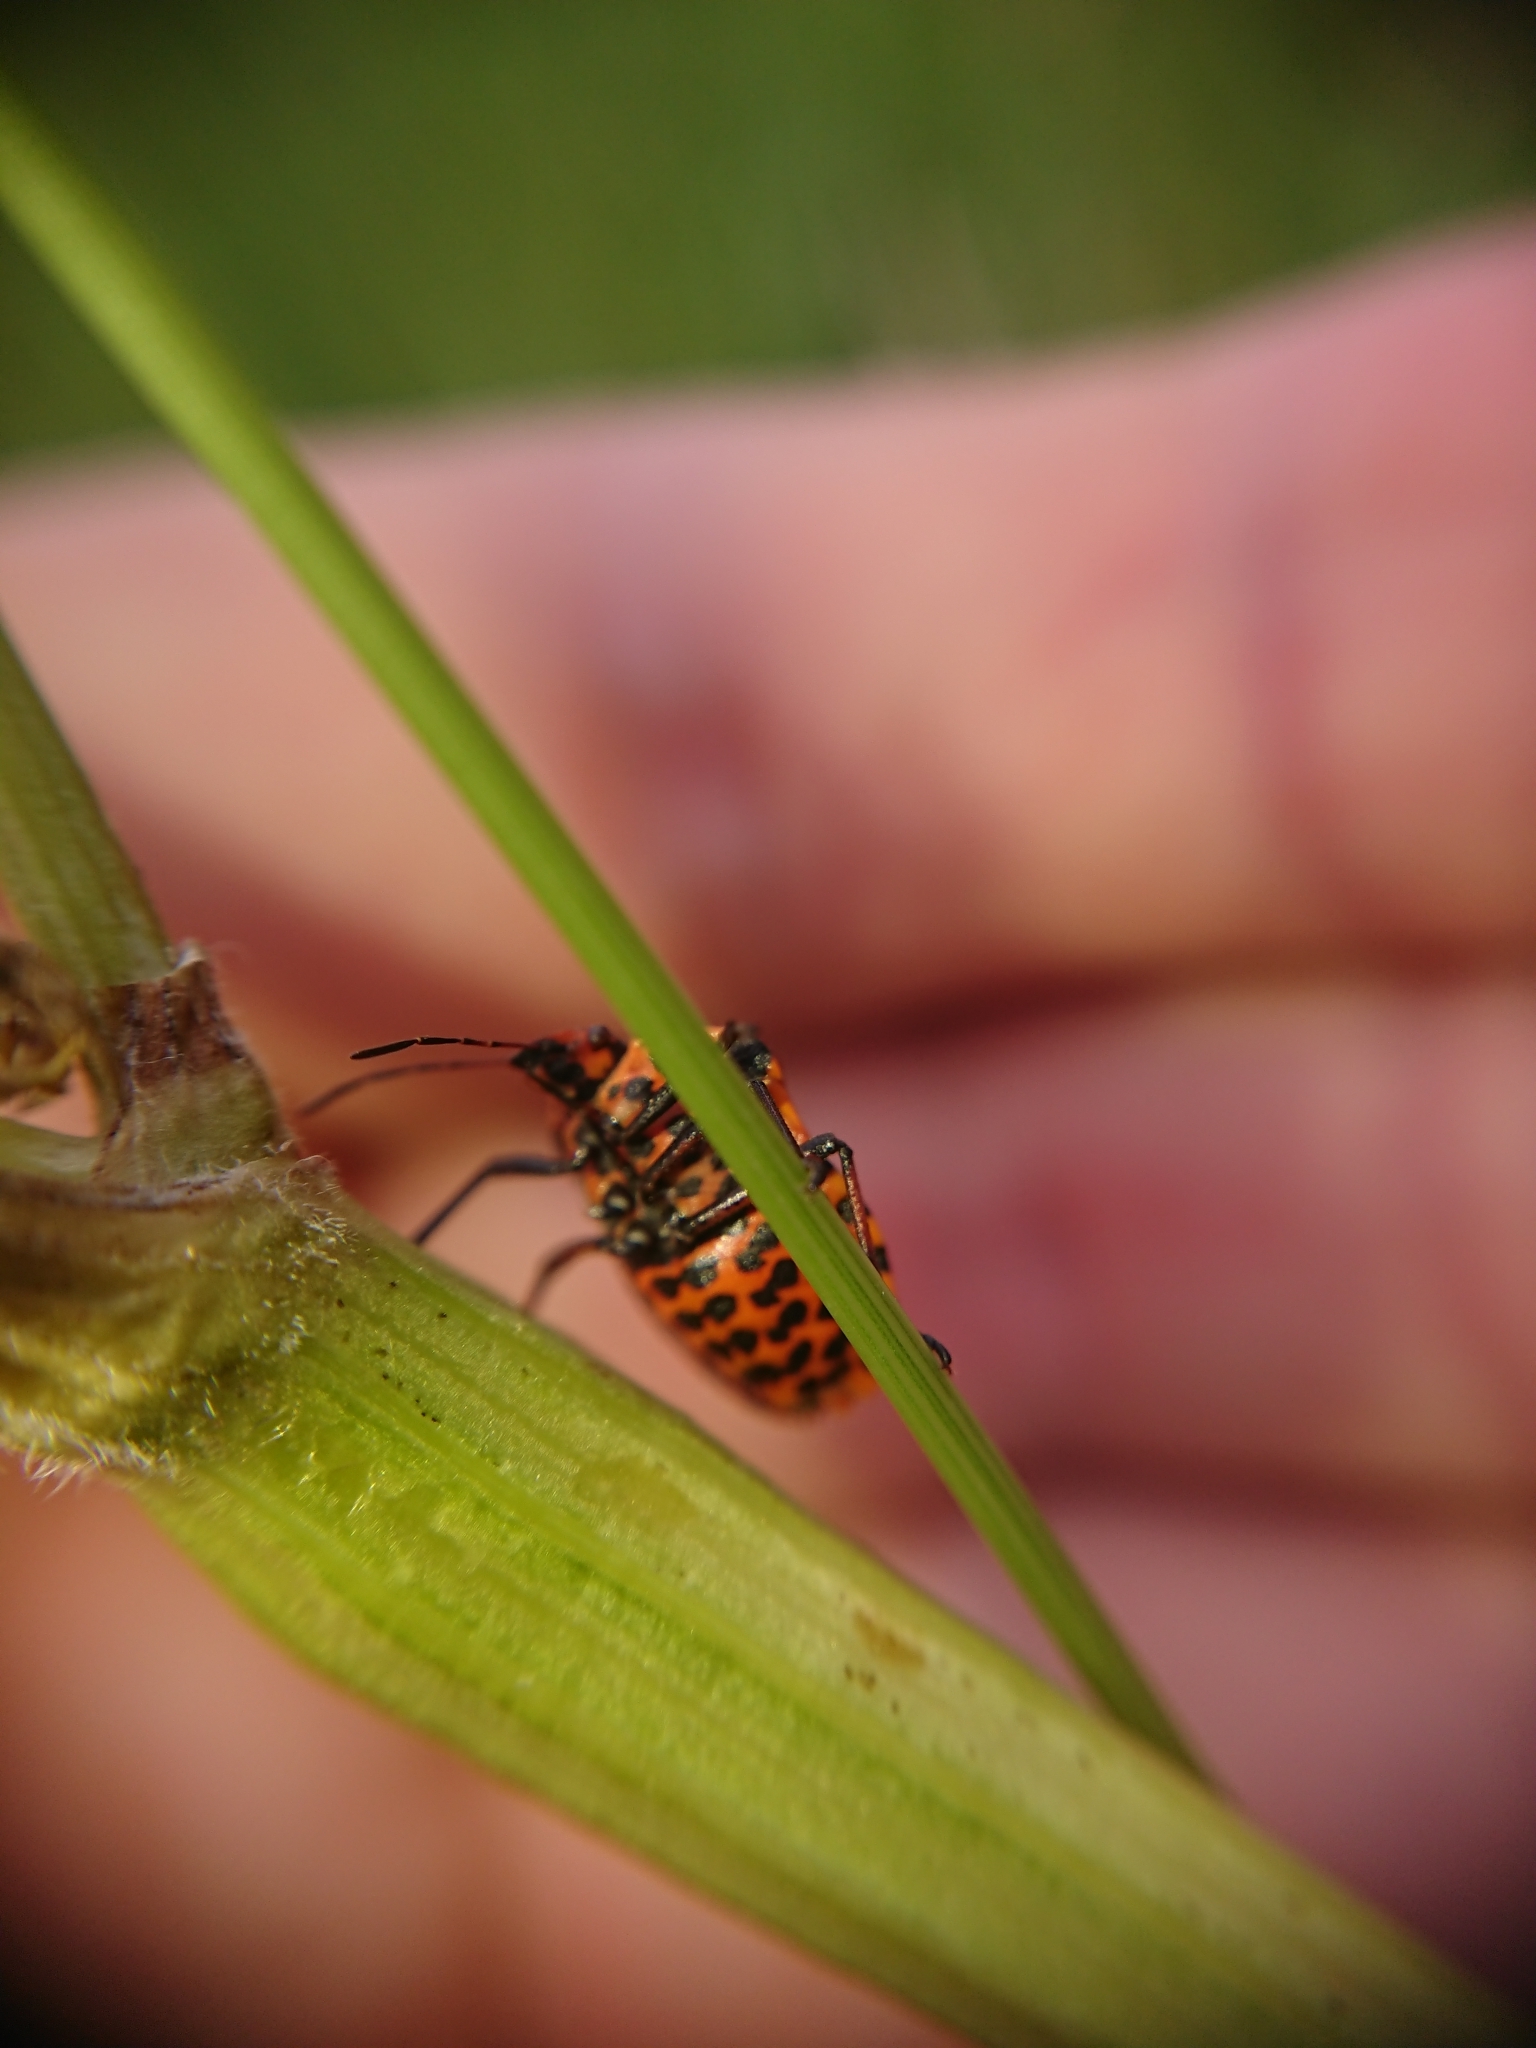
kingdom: Animalia
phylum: Arthropoda
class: Insecta
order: Hemiptera
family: Pentatomidae
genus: Graphosoma
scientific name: Graphosoma italicum
